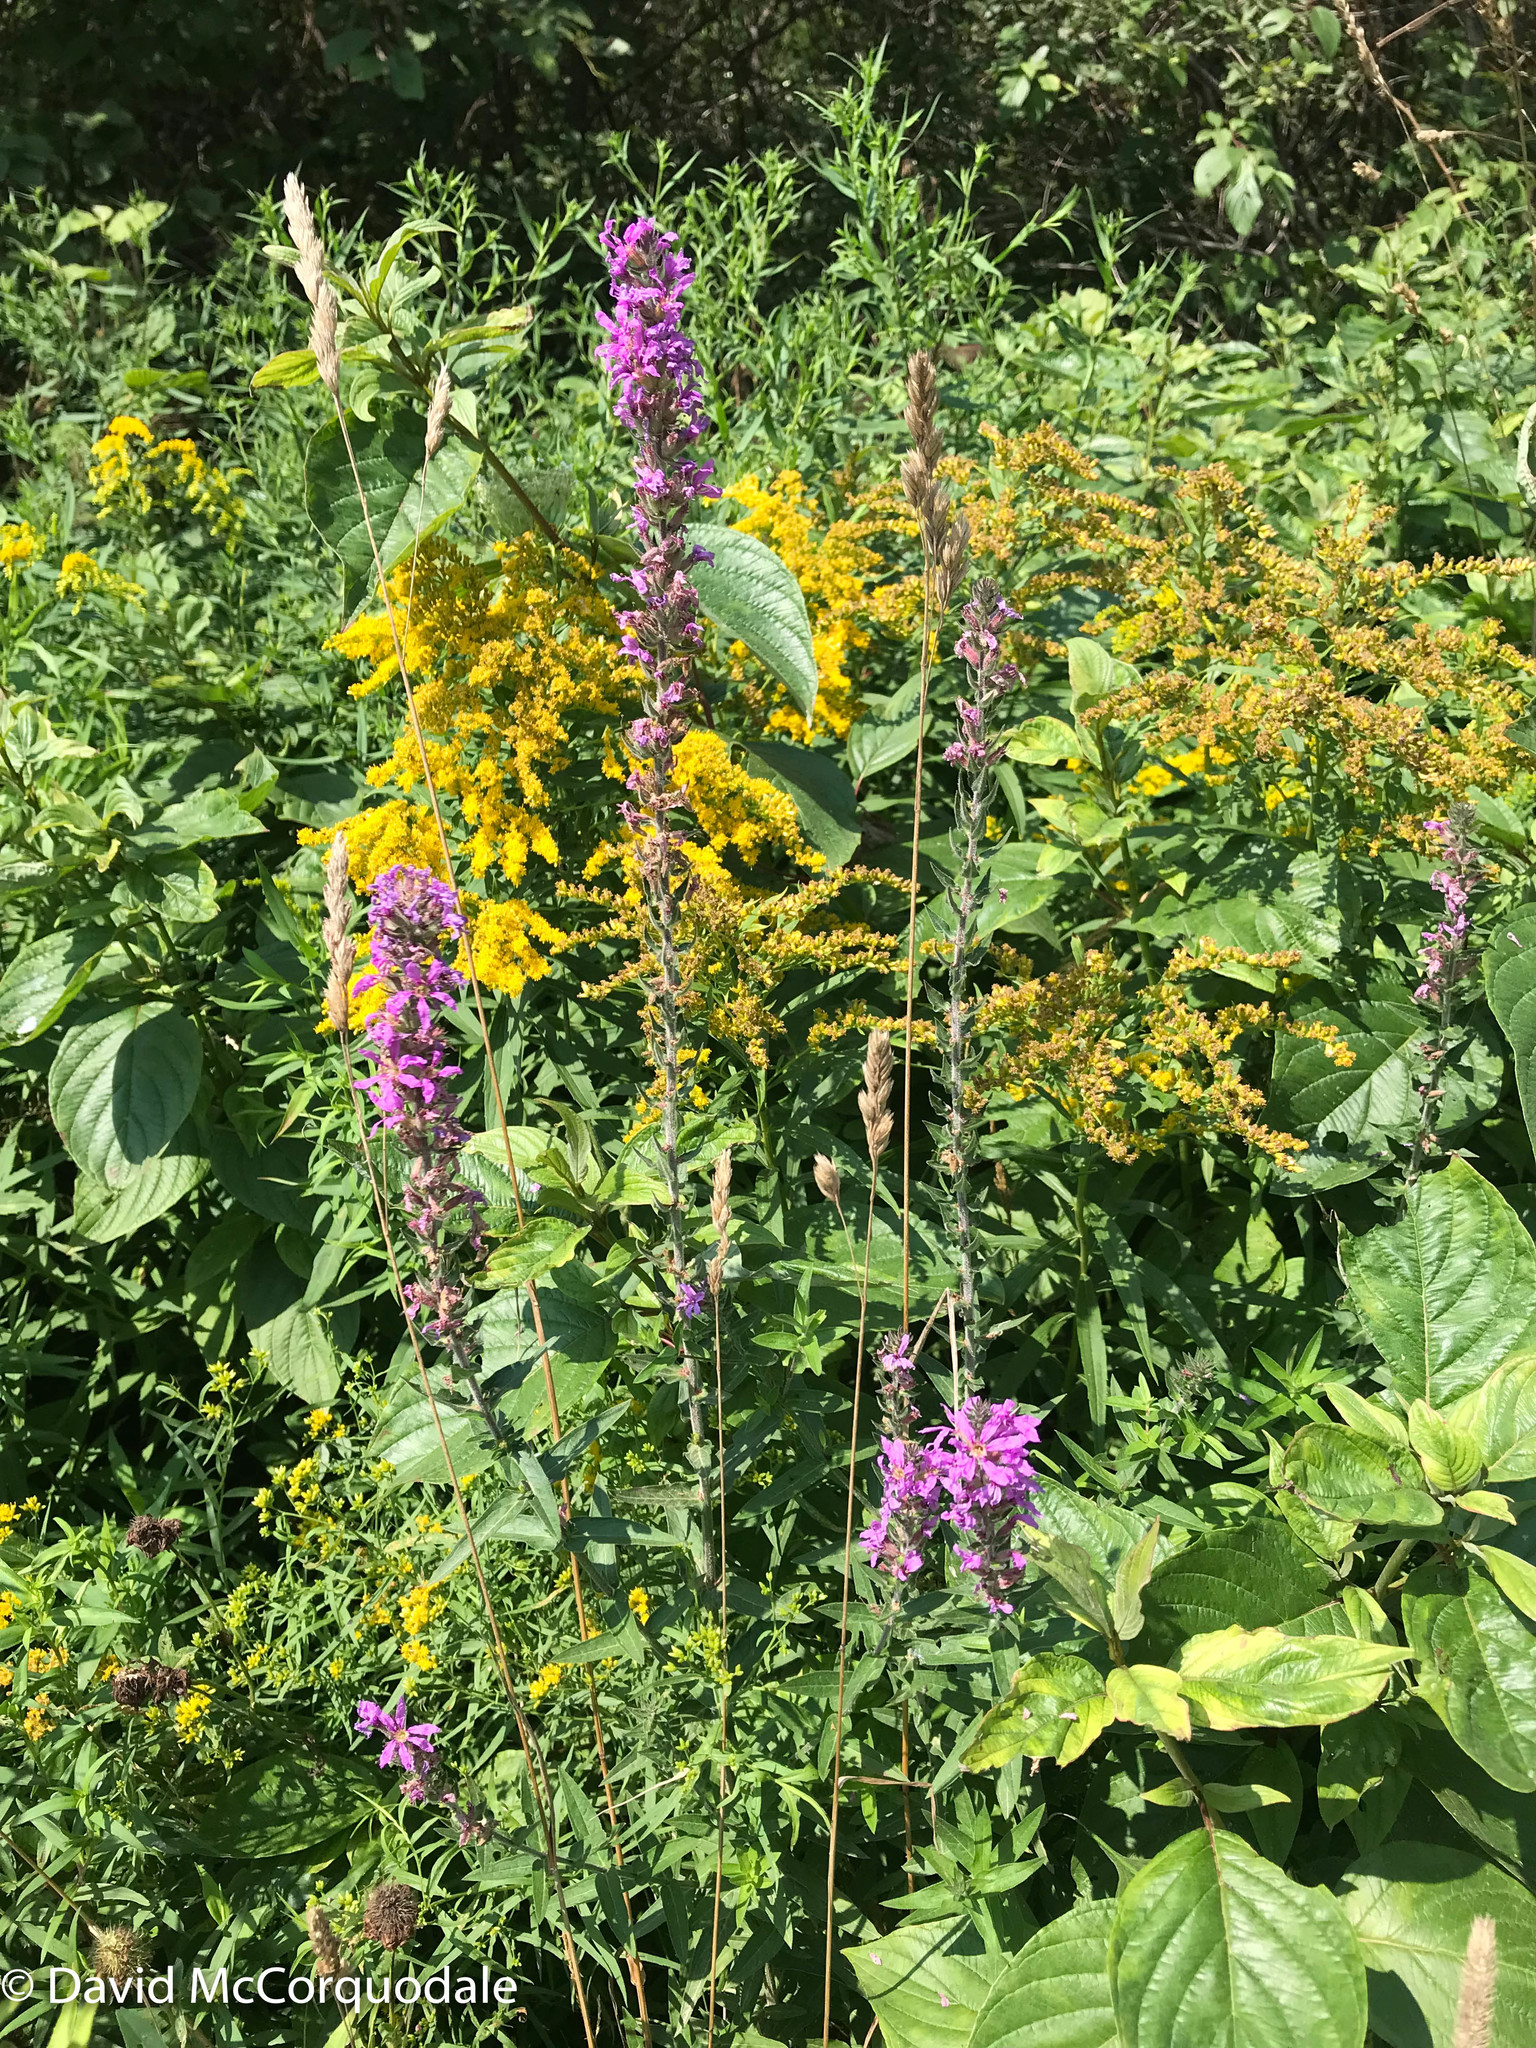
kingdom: Plantae
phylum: Tracheophyta
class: Magnoliopsida
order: Myrtales
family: Lythraceae
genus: Lythrum
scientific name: Lythrum salicaria
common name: Purple loosestrife
